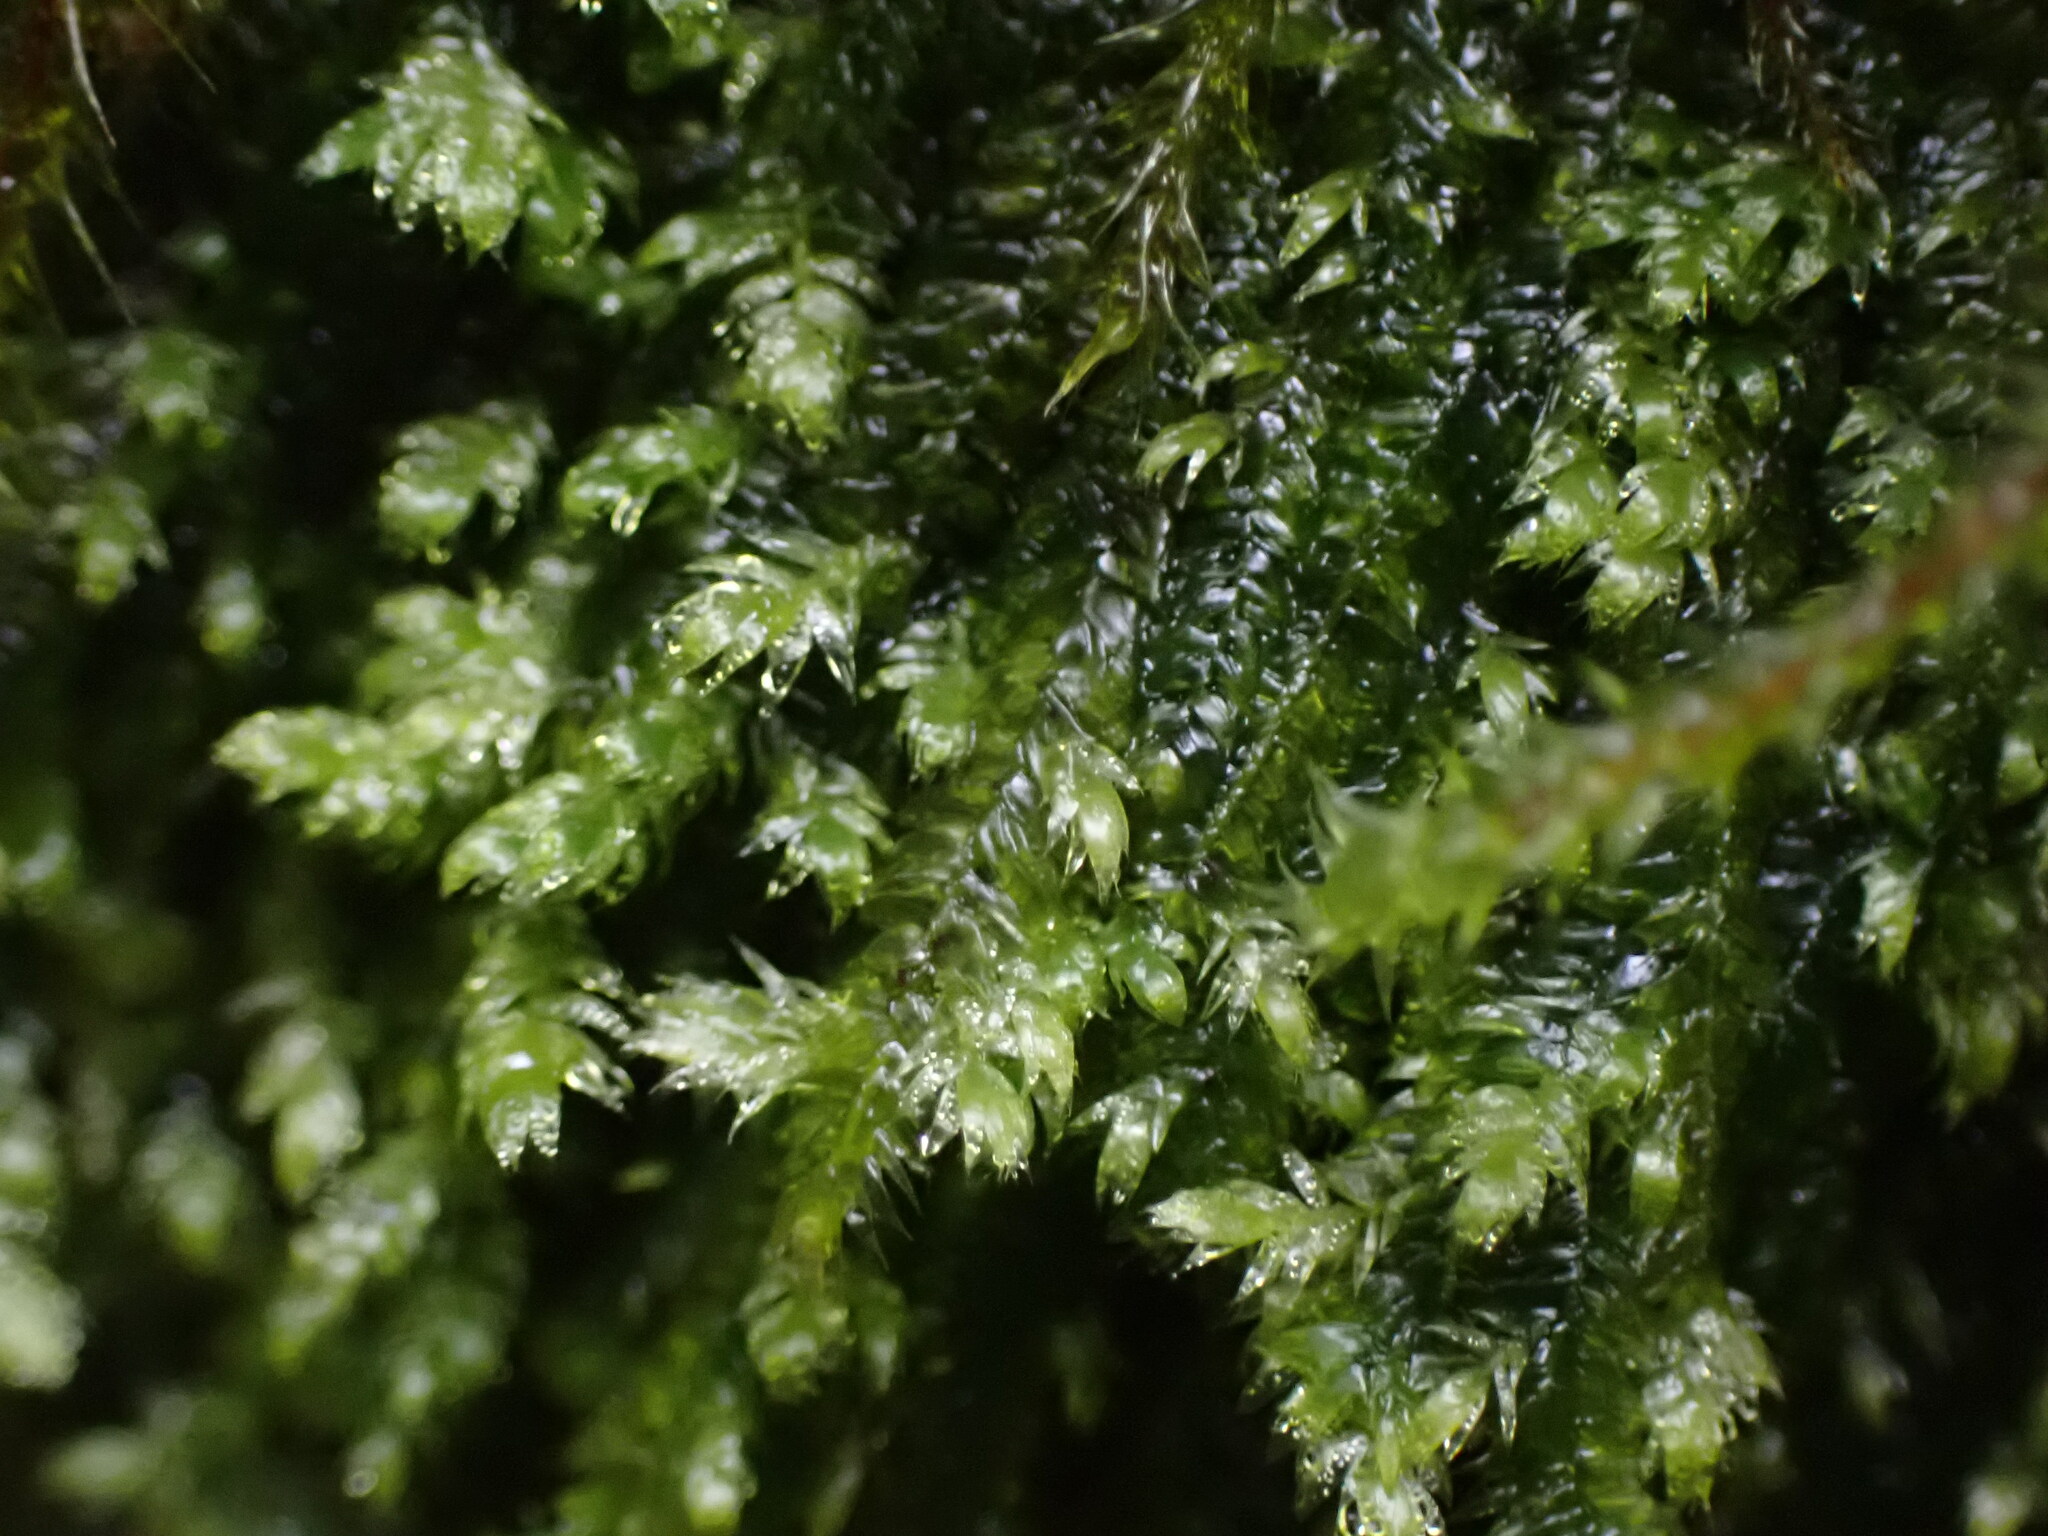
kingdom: Plantae
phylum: Bryophyta
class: Bryopsida
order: Hypnales
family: Plagiotheciaceae
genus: Pseudotaxiphyllum
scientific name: Pseudotaxiphyllum elegans
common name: Elegant silk moss
